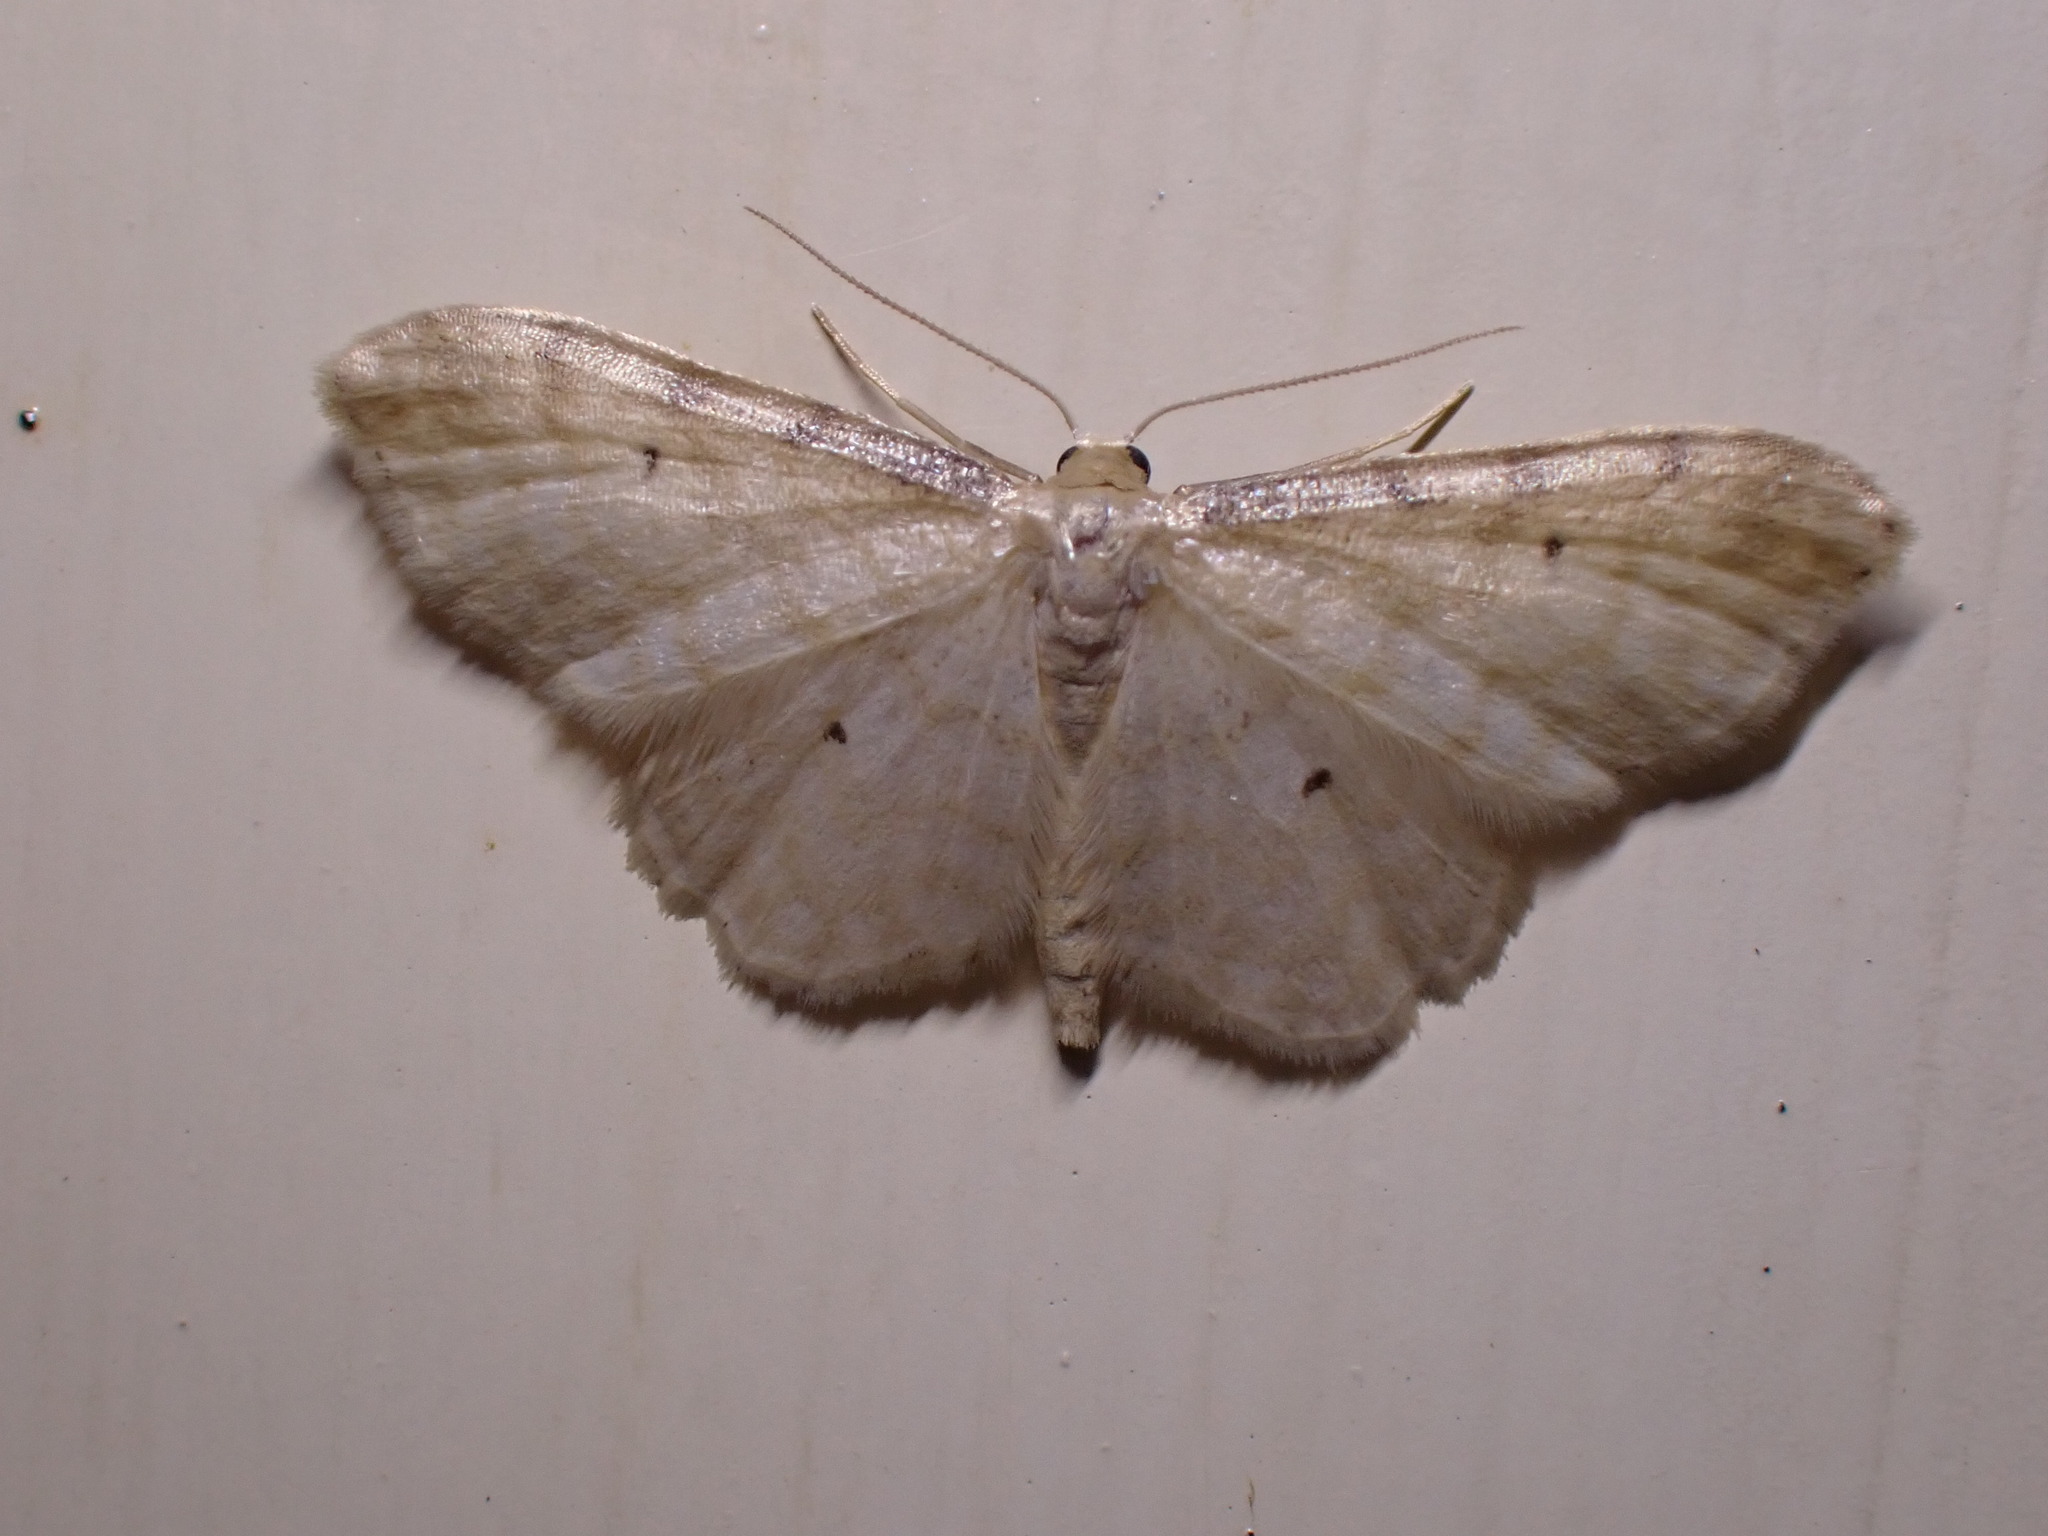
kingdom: Animalia
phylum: Arthropoda
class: Insecta
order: Lepidoptera
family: Geometridae
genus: Idaea
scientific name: Idaea fuscovenosa
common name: Dwarf cream wave
